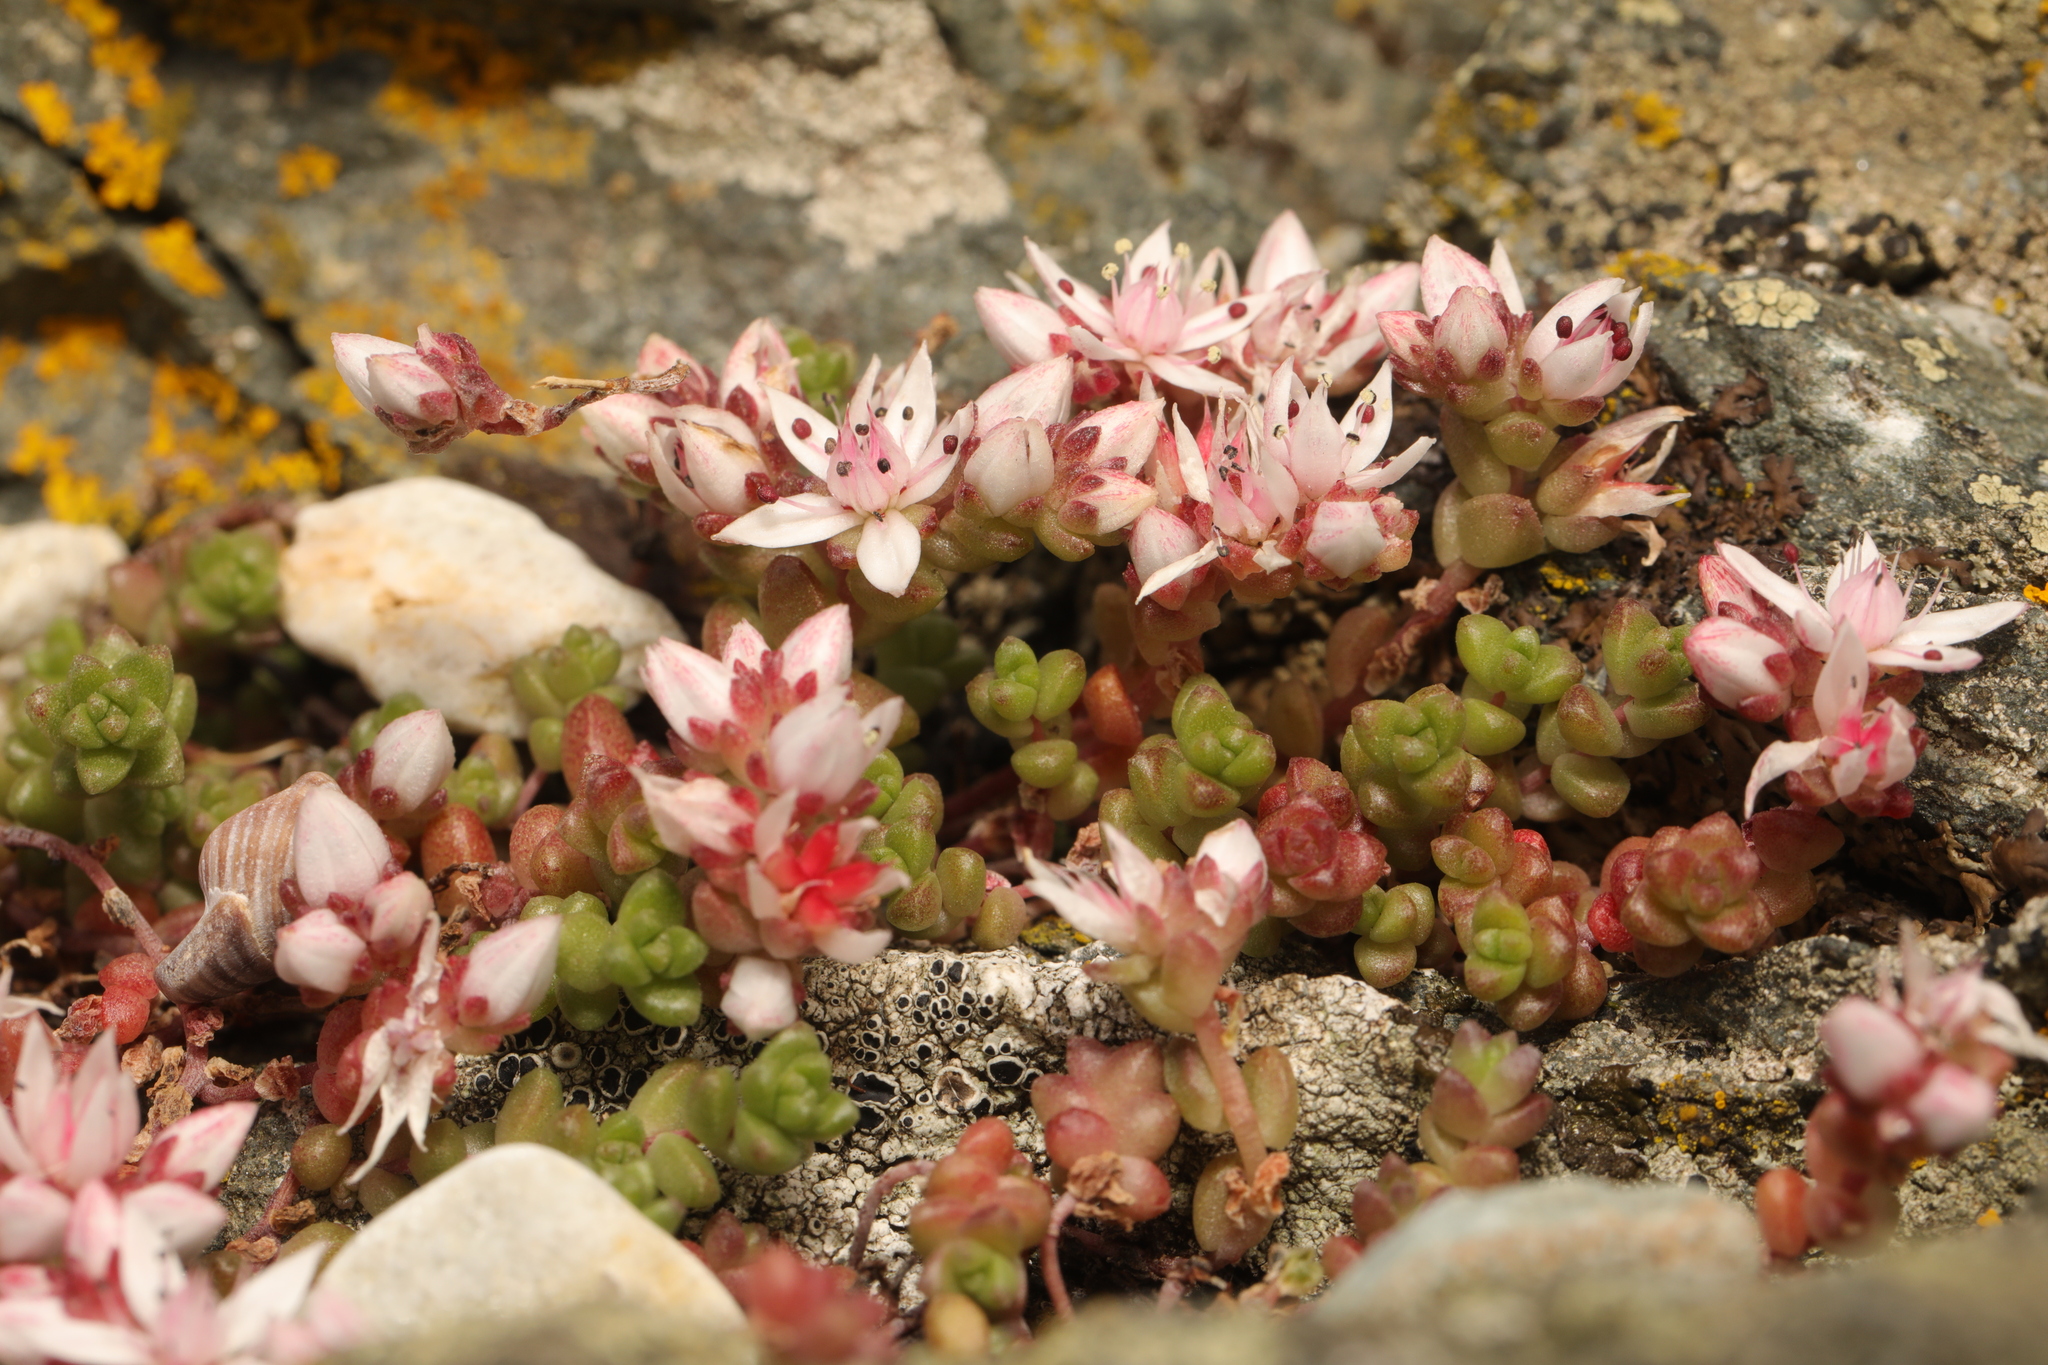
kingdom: Plantae
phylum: Tracheophyta
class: Magnoliopsida
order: Saxifragales
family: Crassulaceae
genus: Sedum
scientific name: Sedum anglicum
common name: English stonecrop
